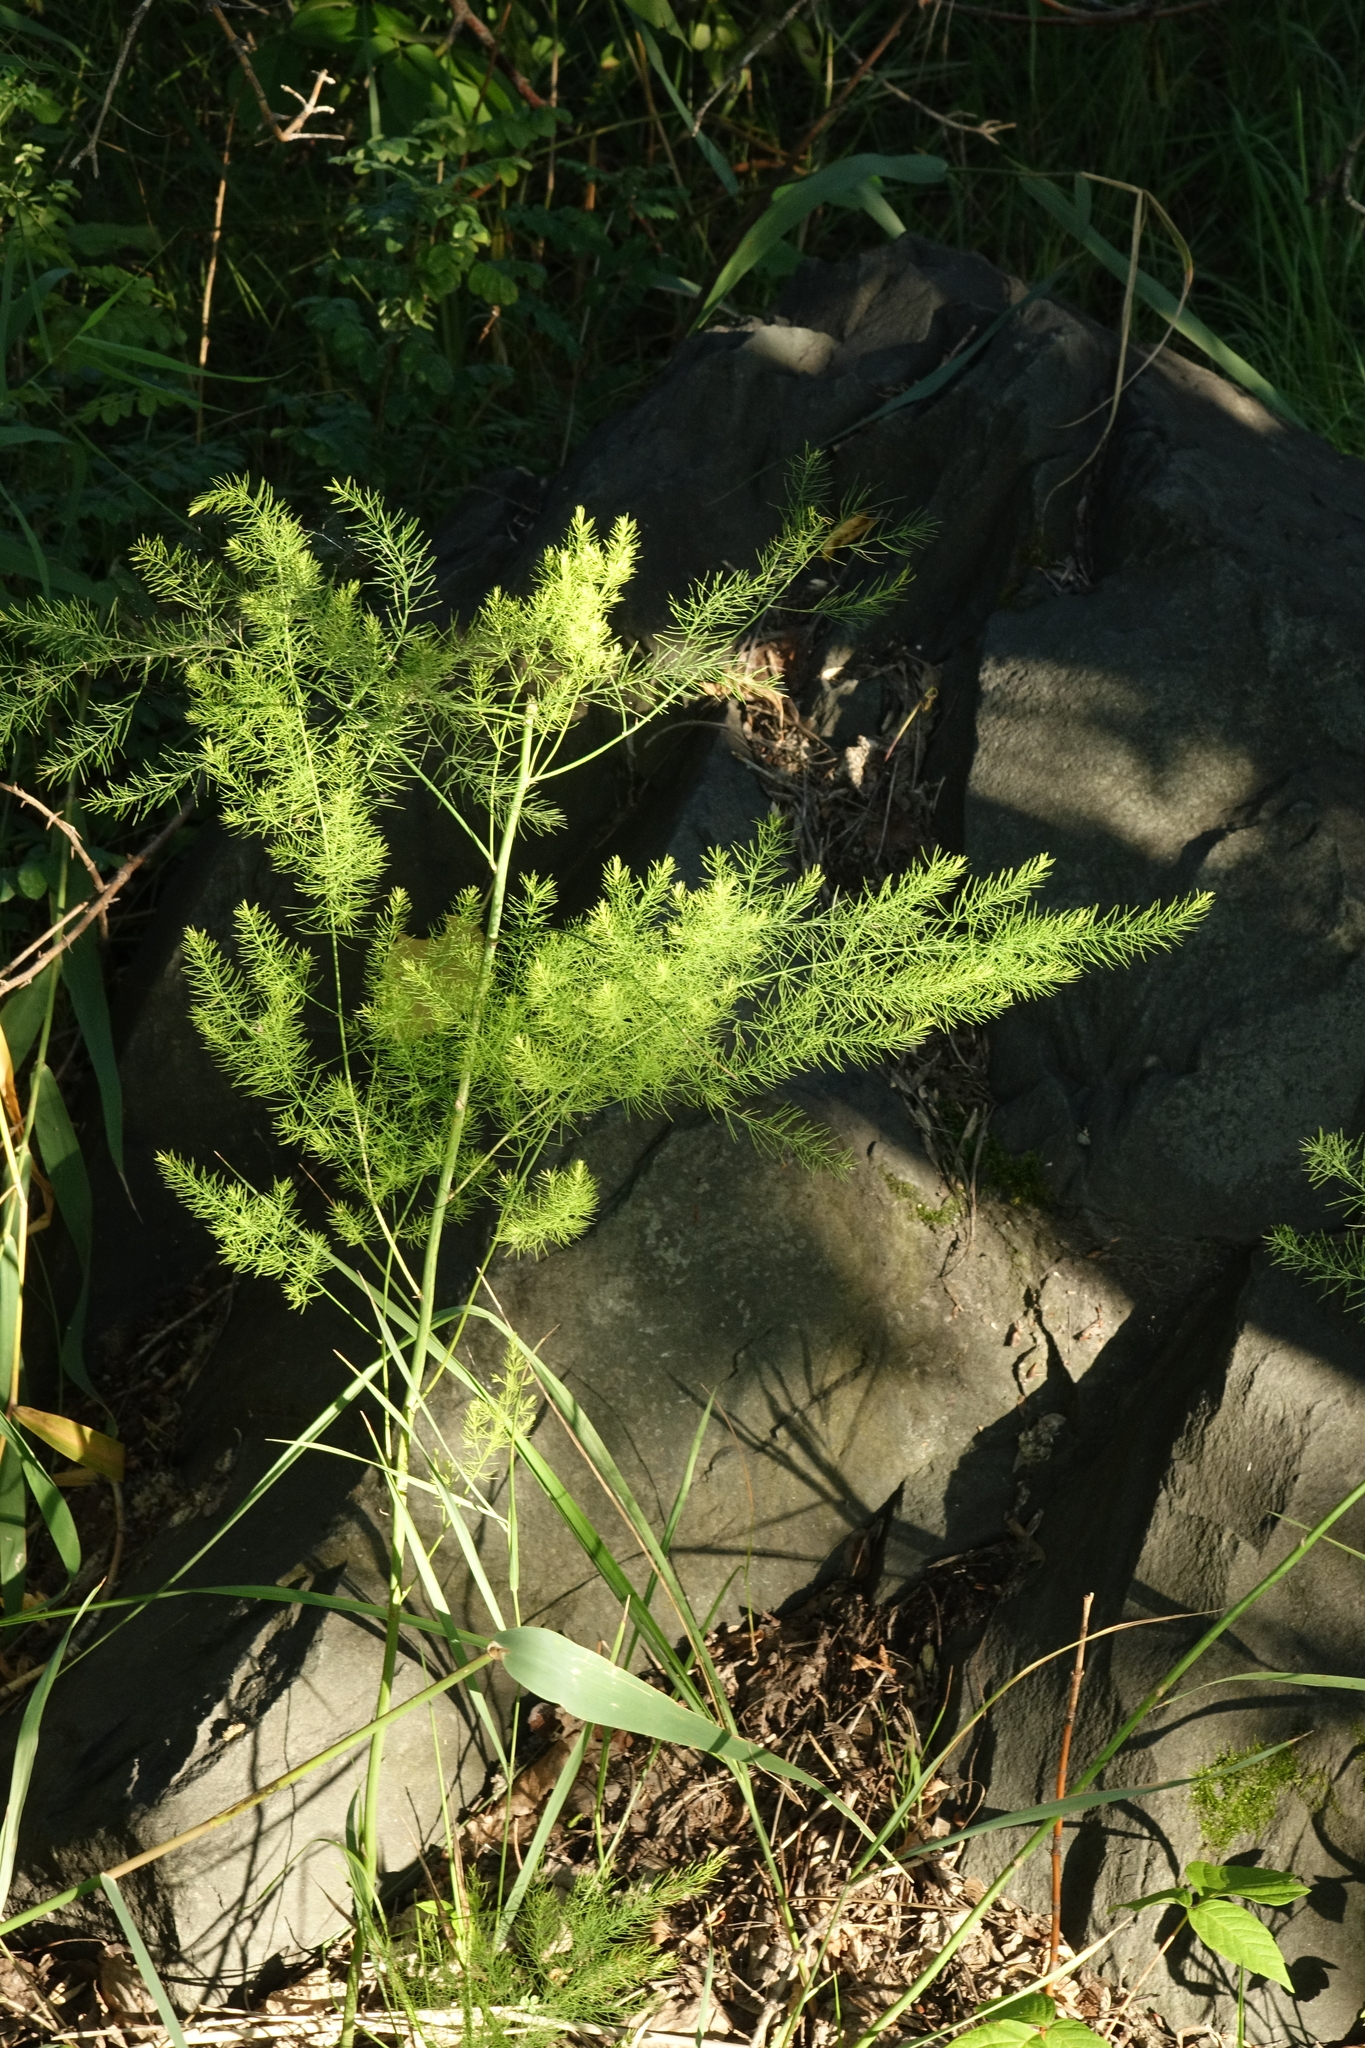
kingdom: Plantae
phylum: Tracheophyta
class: Liliopsida
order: Asparagales
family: Asparagaceae
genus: Asparagus
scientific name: Asparagus officinalis
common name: Garden asparagus
